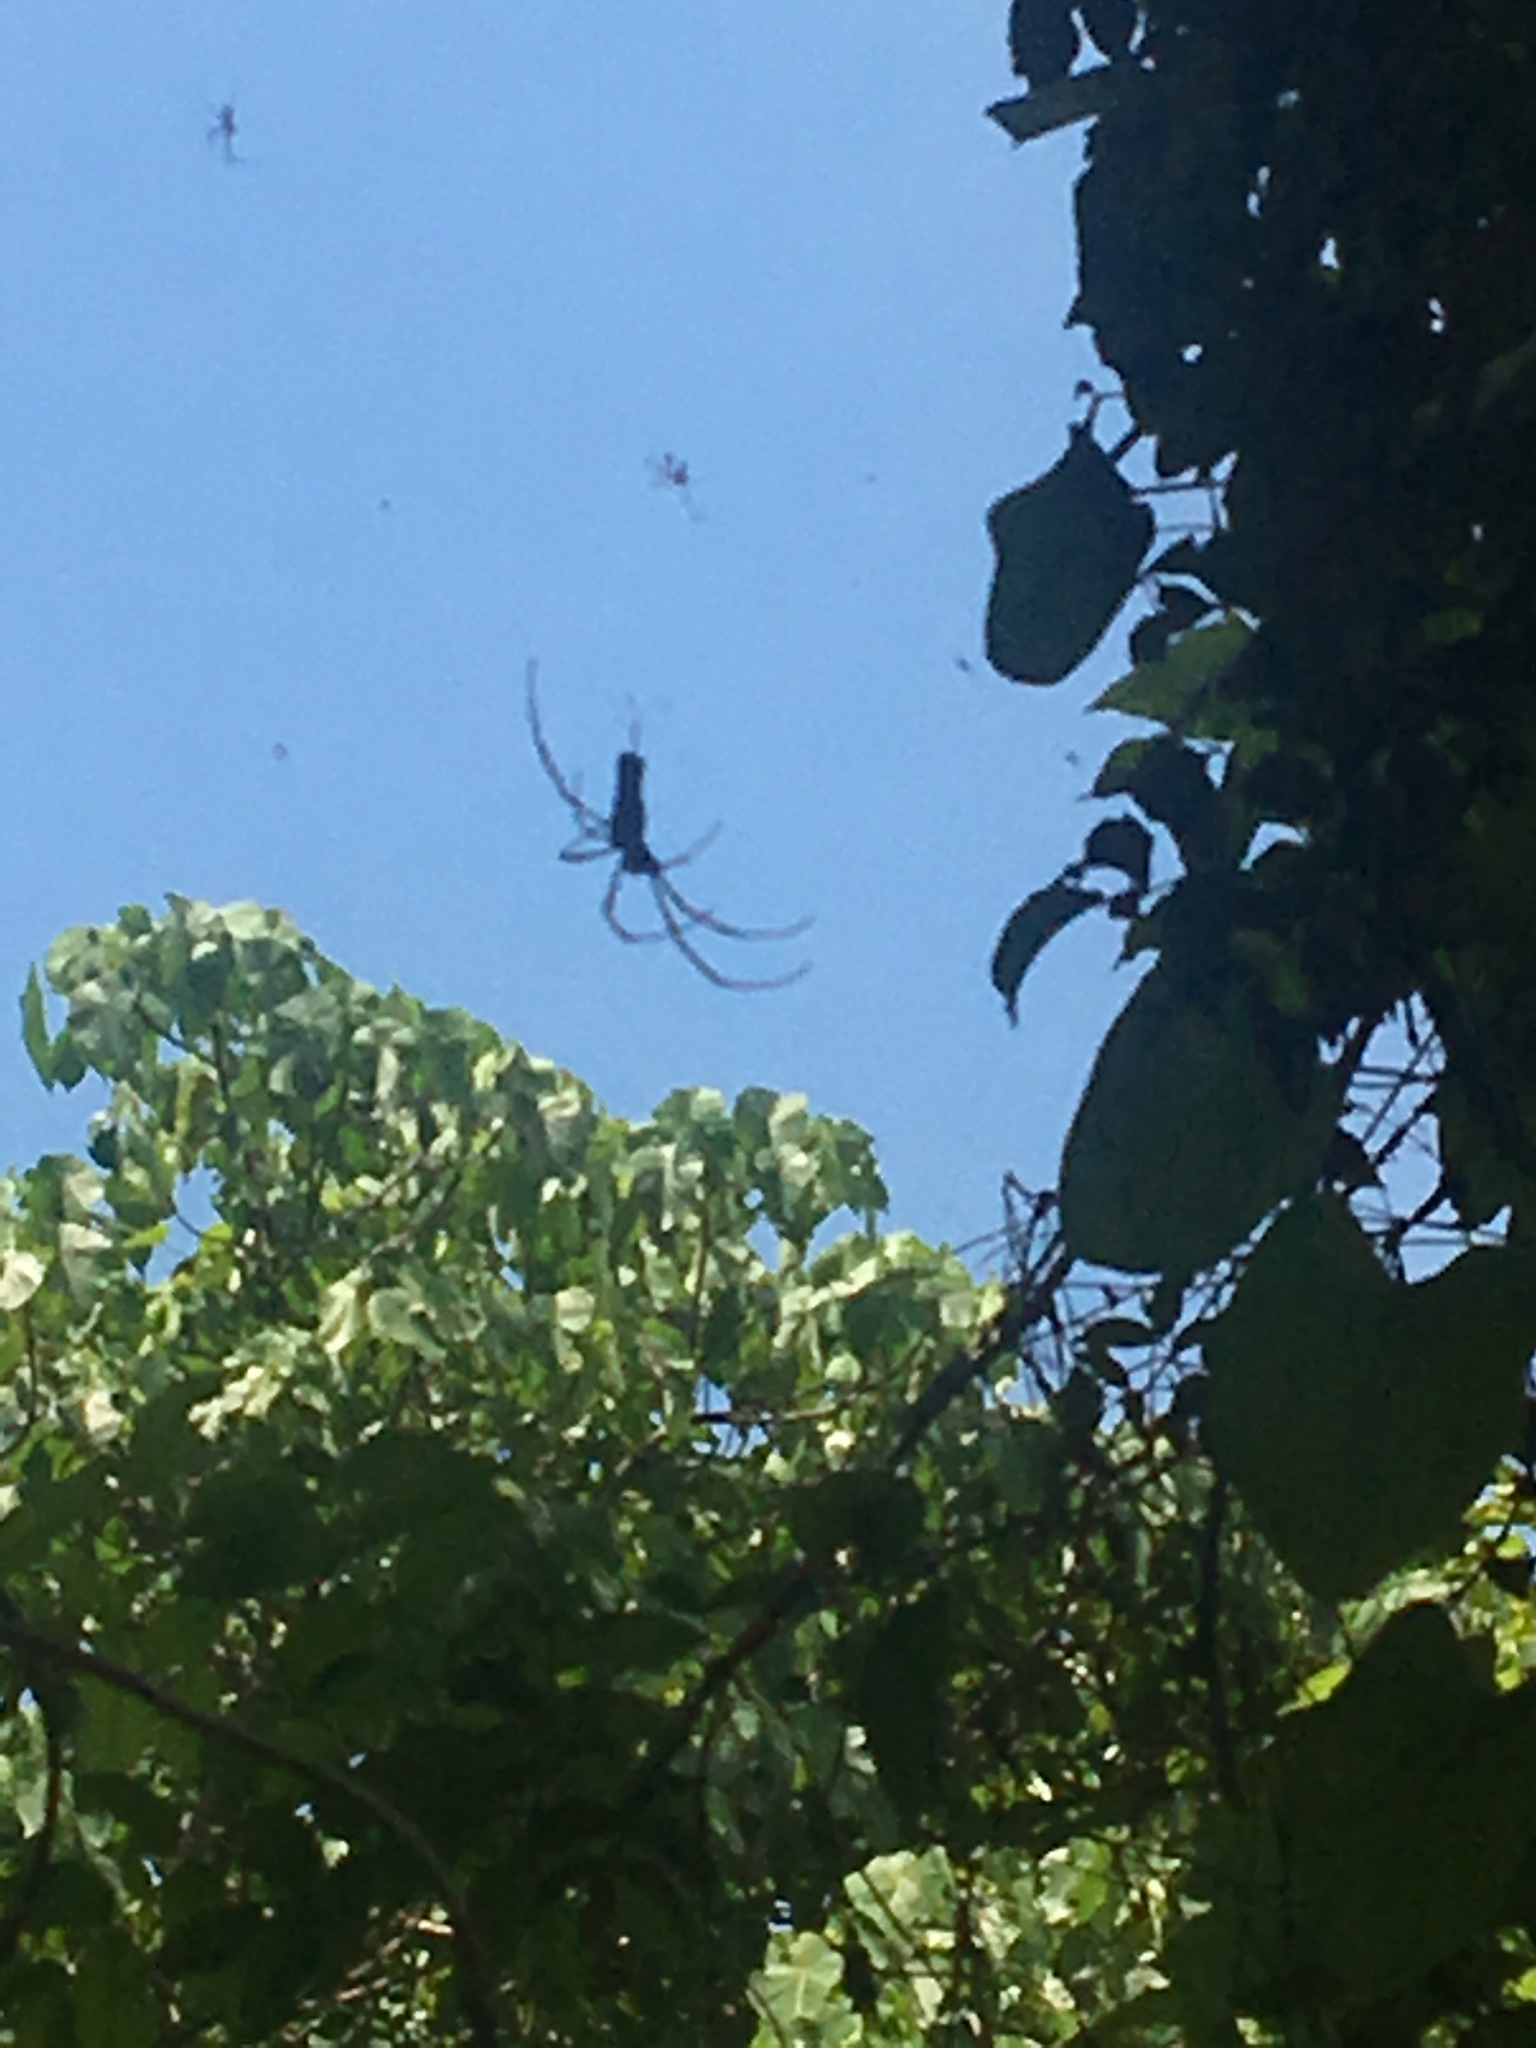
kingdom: Animalia
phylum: Arthropoda
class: Arachnida
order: Araneae
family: Araneidae
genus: Nephila
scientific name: Nephila pilipes
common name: Giant golden orb weaver
